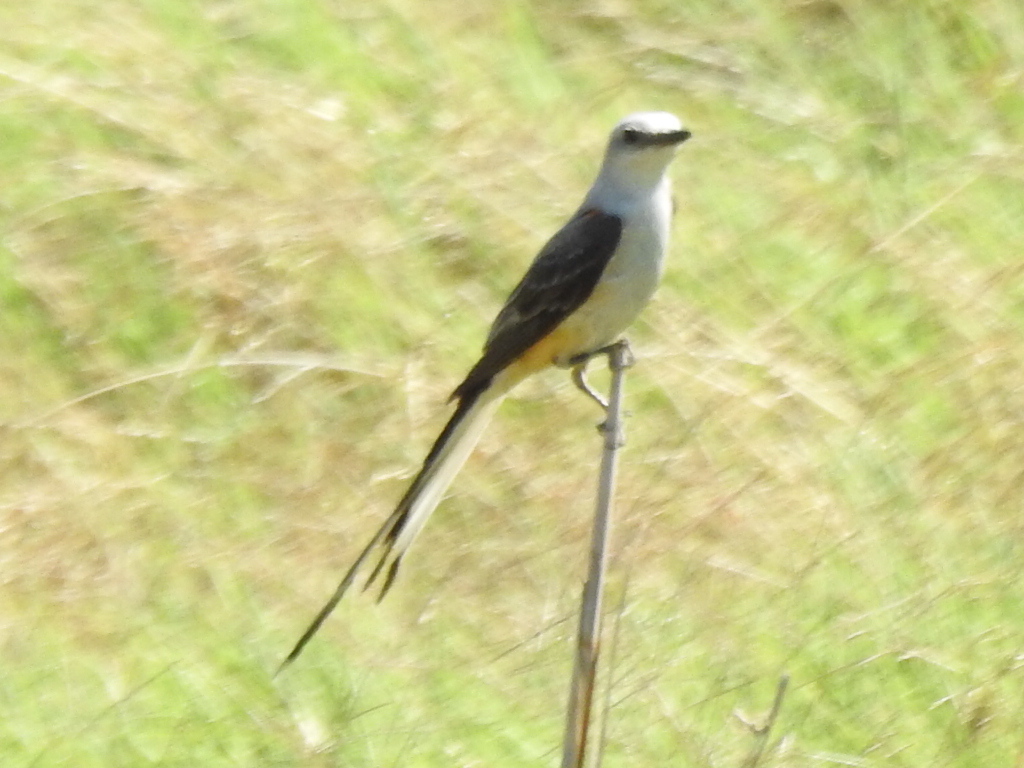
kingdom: Animalia
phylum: Chordata
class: Aves
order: Passeriformes
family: Tyrannidae
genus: Tyrannus
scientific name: Tyrannus forficatus
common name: Scissor-tailed flycatcher
